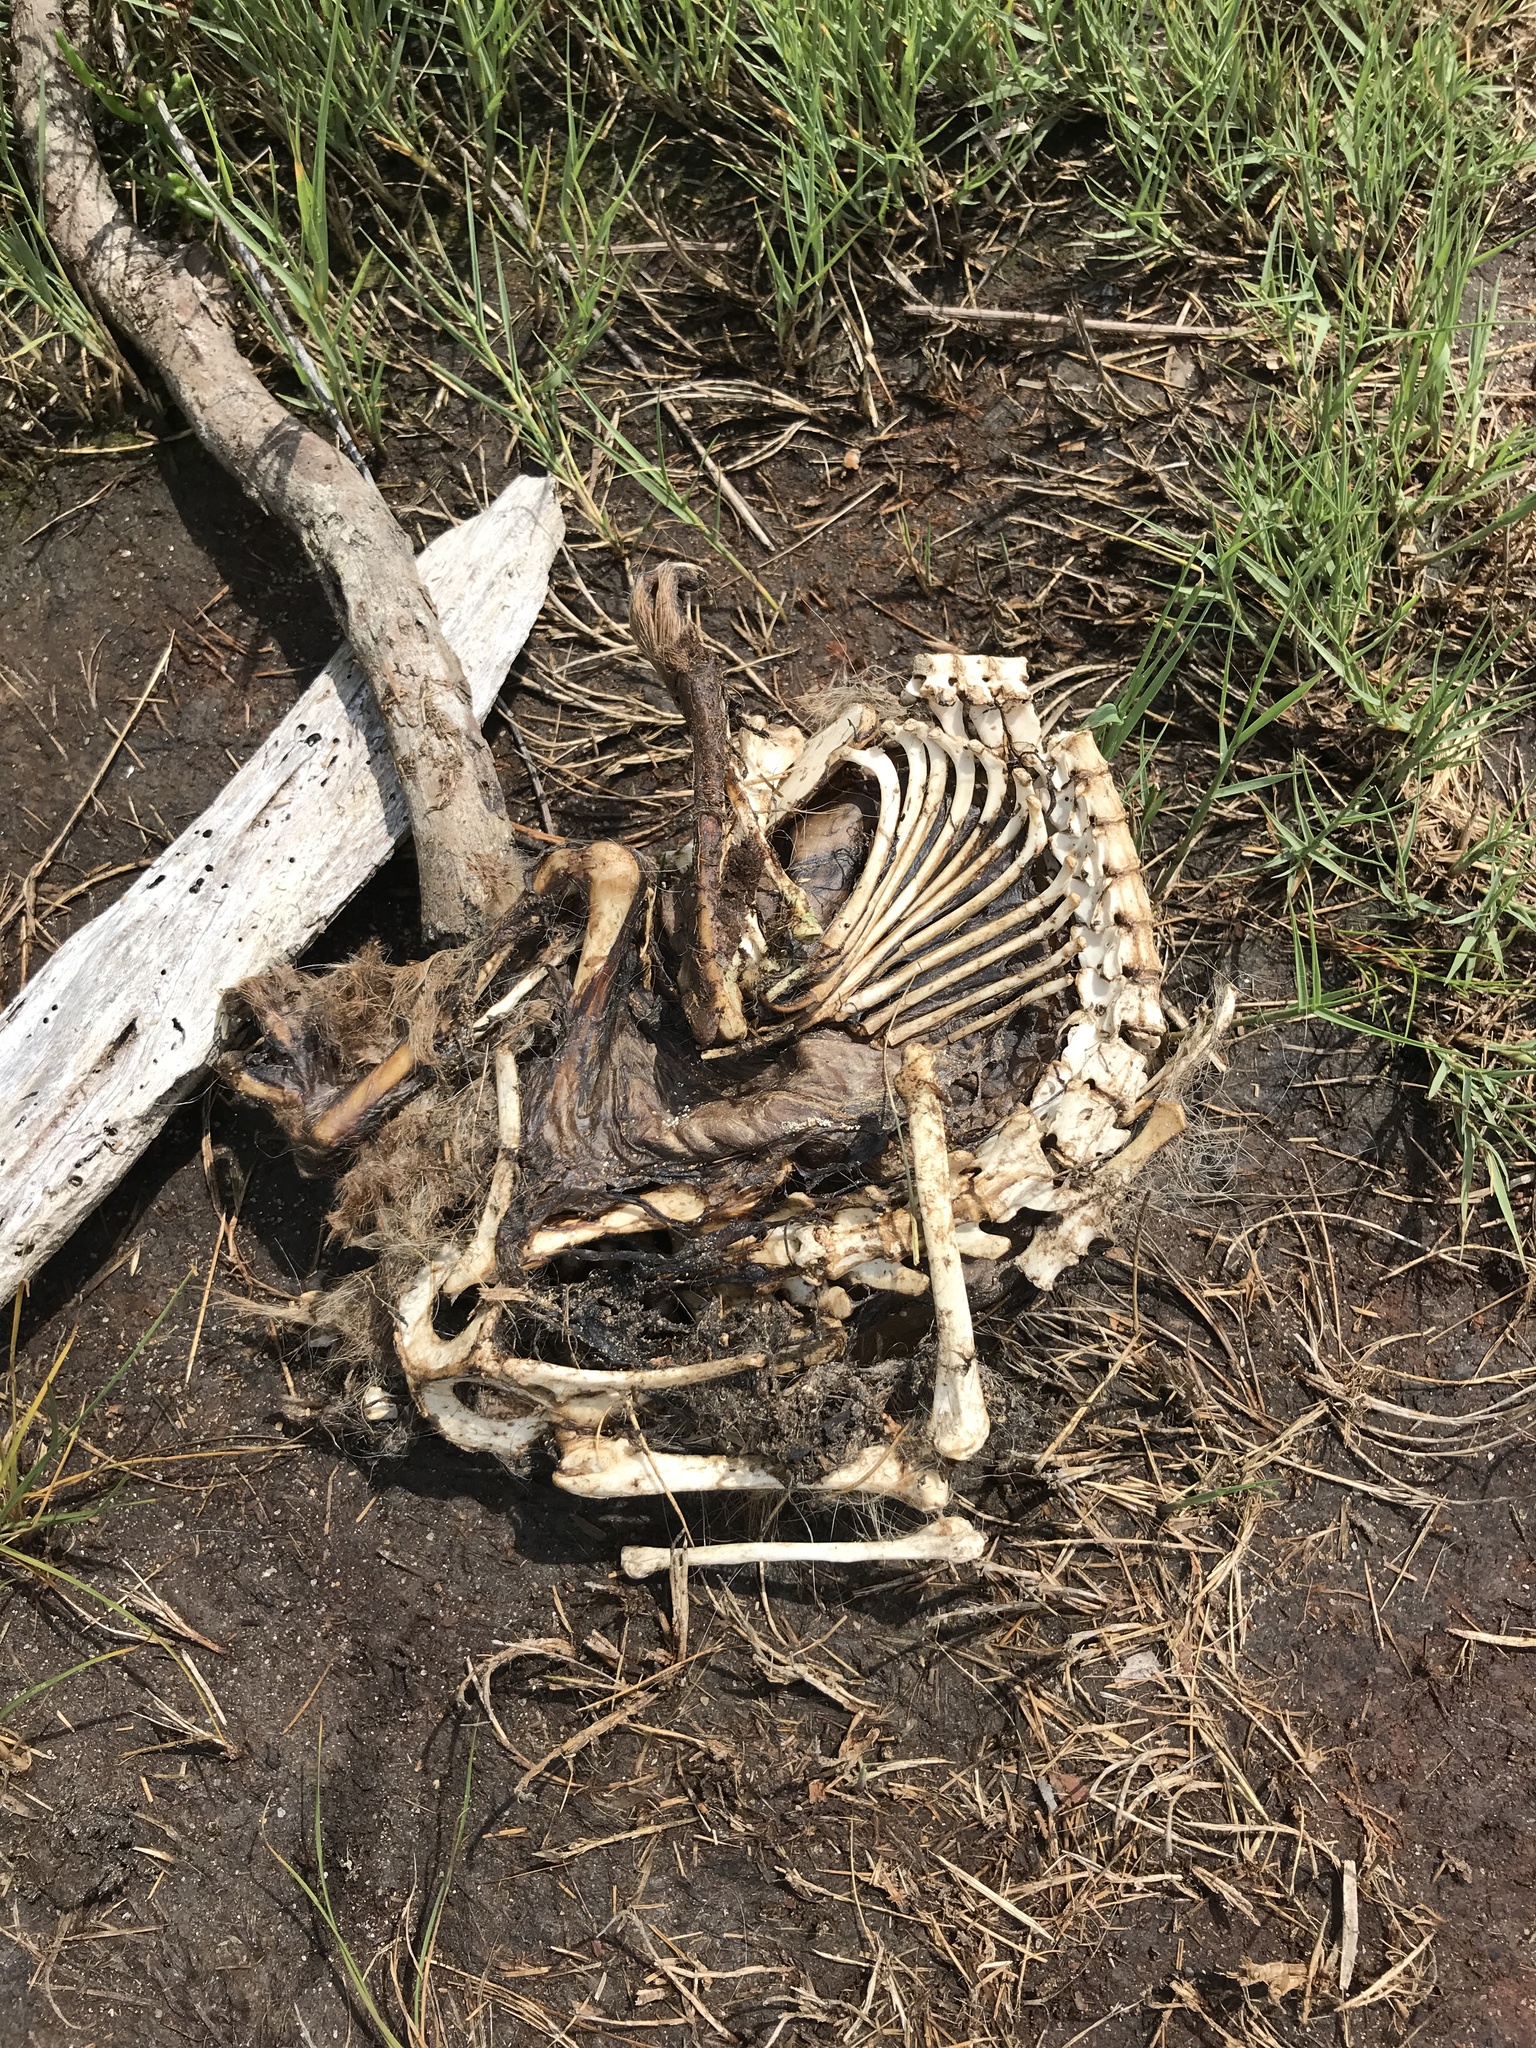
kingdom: Animalia
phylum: Chordata
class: Mammalia
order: Didelphimorphia
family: Didelphidae
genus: Didelphis
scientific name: Didelphis virginiana
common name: Virginia opossum
